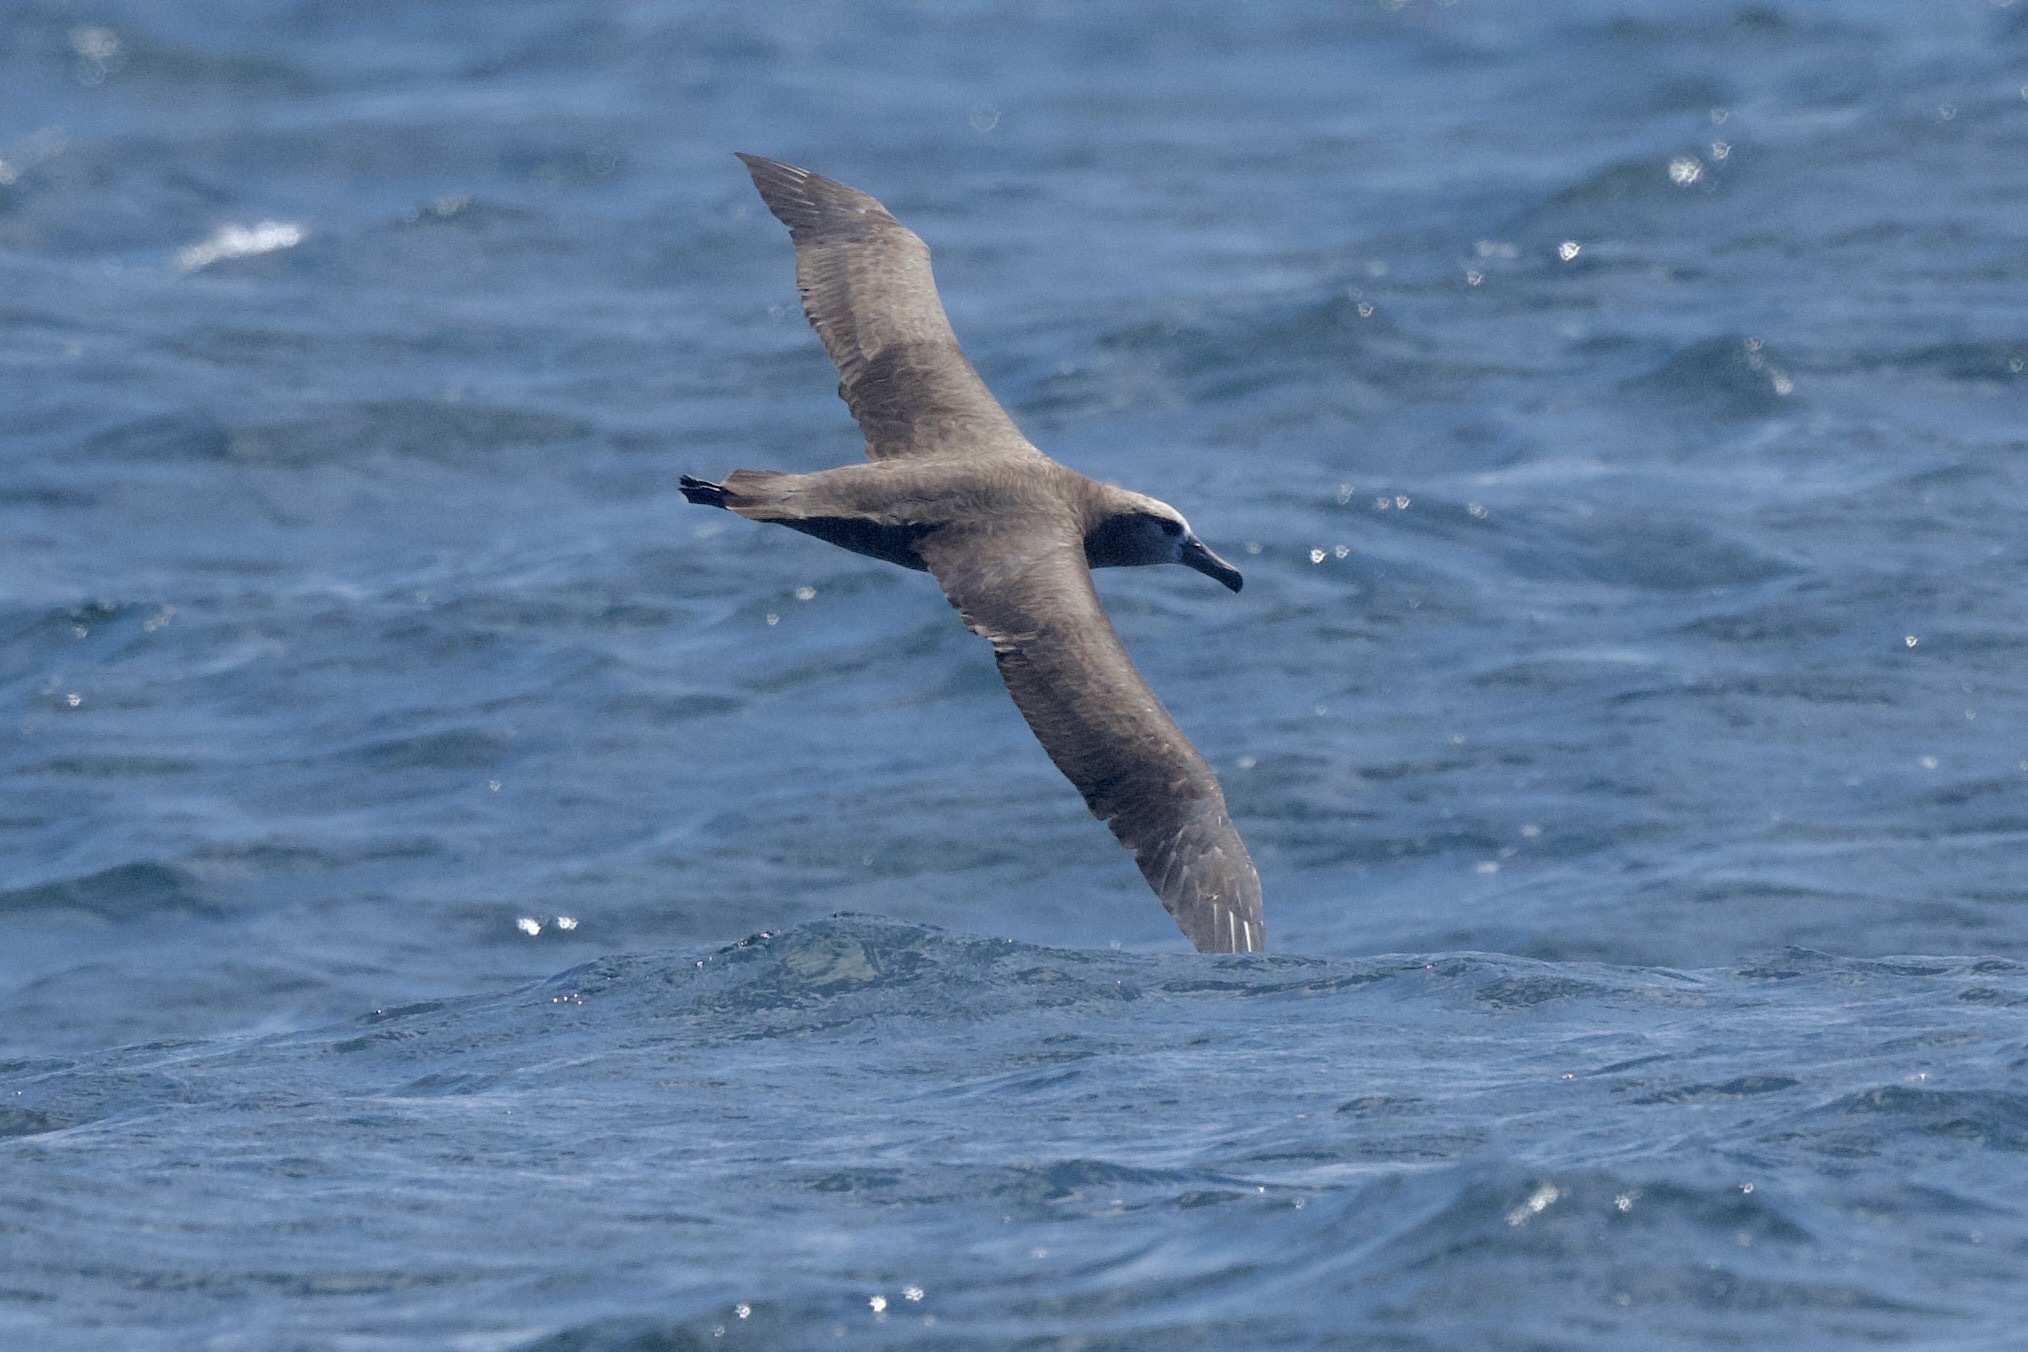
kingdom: Animalia
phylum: Chordata
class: Aves
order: Procellariiformes
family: Diomedeidae
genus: Phoebastria
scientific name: Phoebastria nigripes
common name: Black-footed albatross
